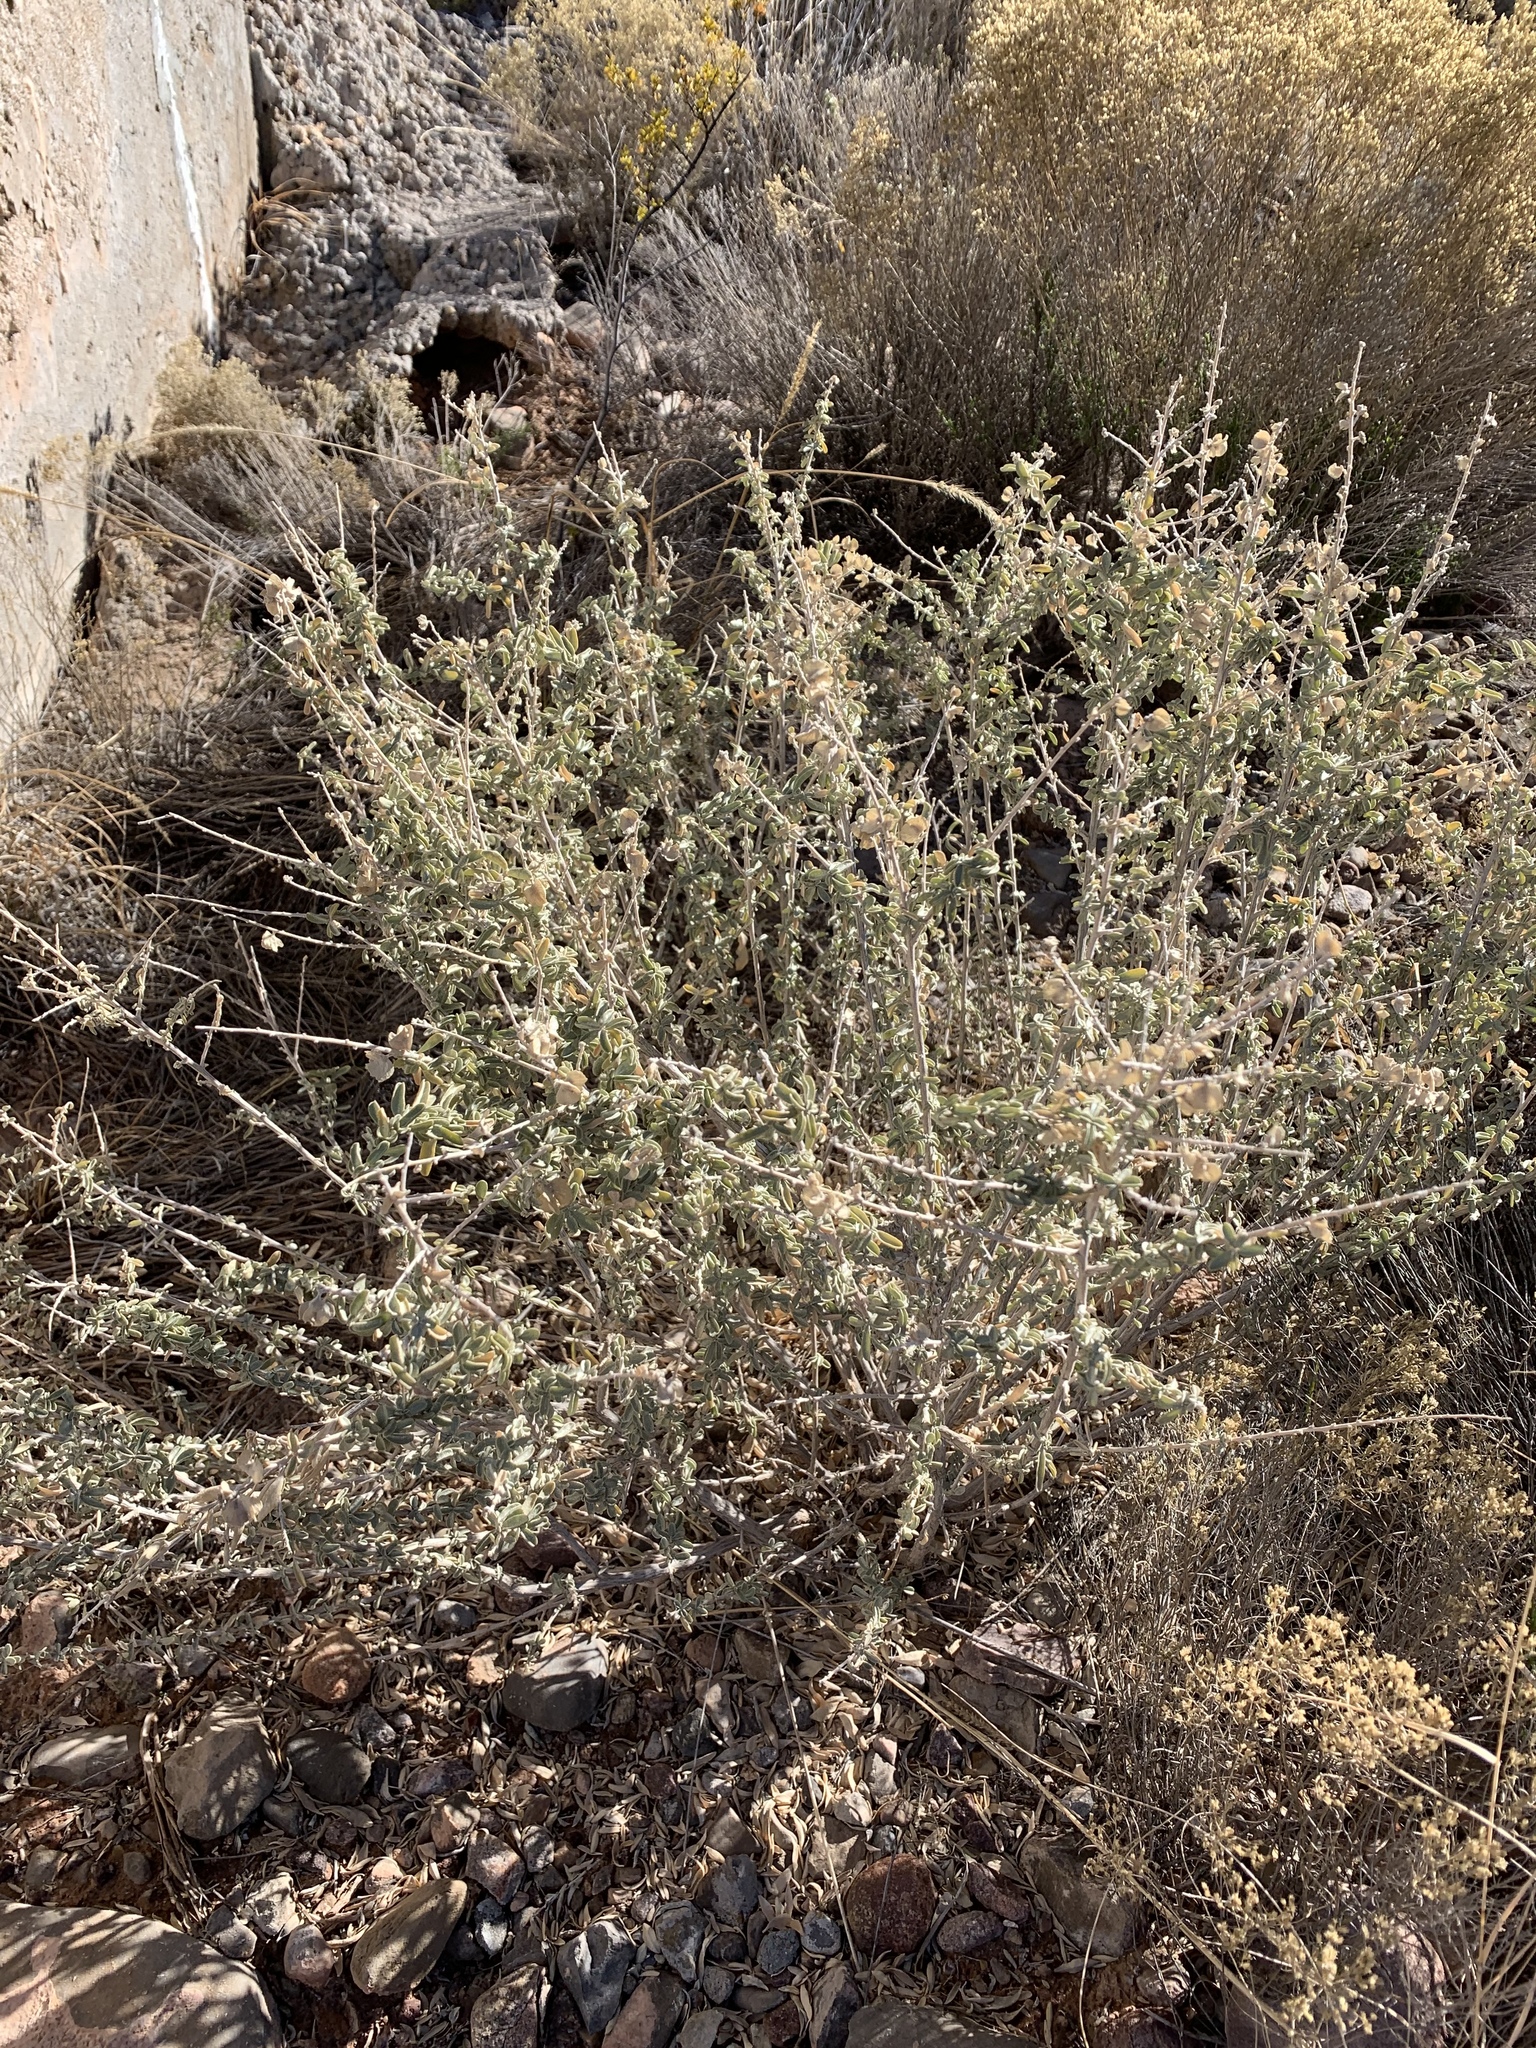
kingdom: Plantae
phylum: Tracheophyta
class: Magnoliopsida
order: Caryophyllales
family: Amaranthaceae
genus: Atriplex
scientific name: Atriplex canescens
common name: Four-wing saltbush
